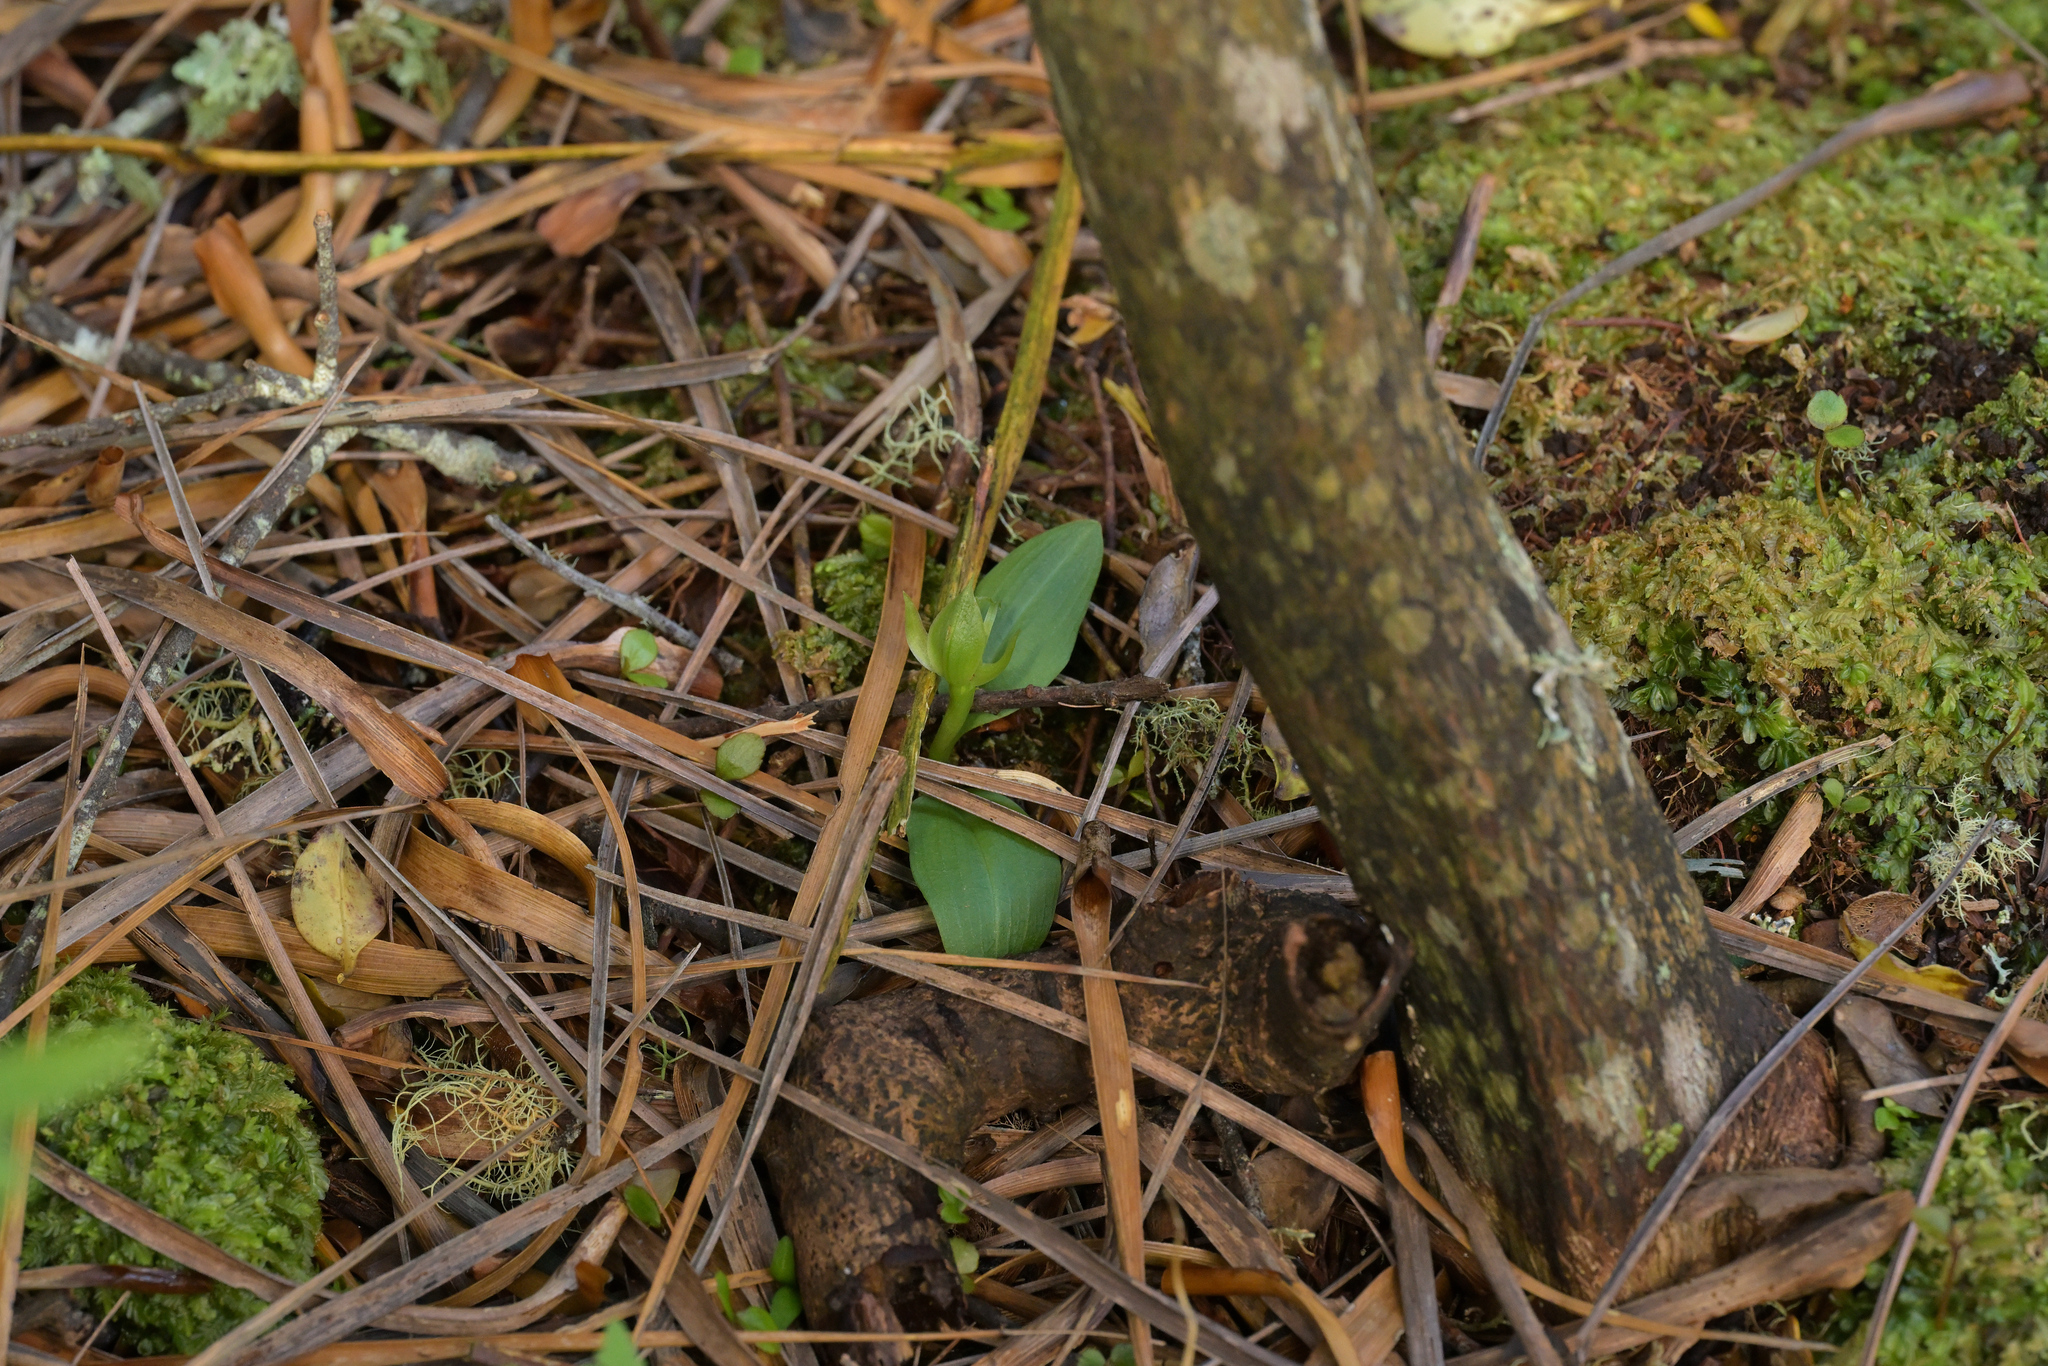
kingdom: Plantae
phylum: Tracheophyta
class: Liliopsida
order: Asparagales
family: Orchidaceae
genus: Chiloglottis
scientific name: Chiloglottis cornuta
